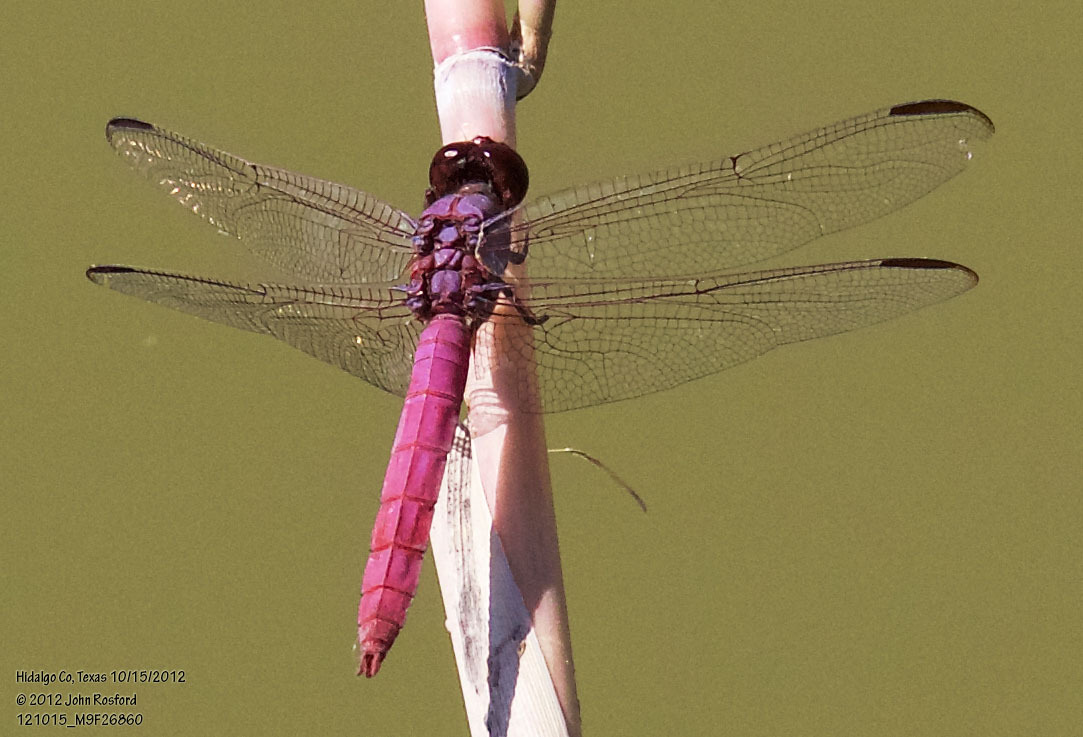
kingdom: Animalia
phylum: Arthropoda
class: Insecta
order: Odonata
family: Libellulidae
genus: Orthemis
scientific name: Orthemis ferruginea
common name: Roseate skimmer
